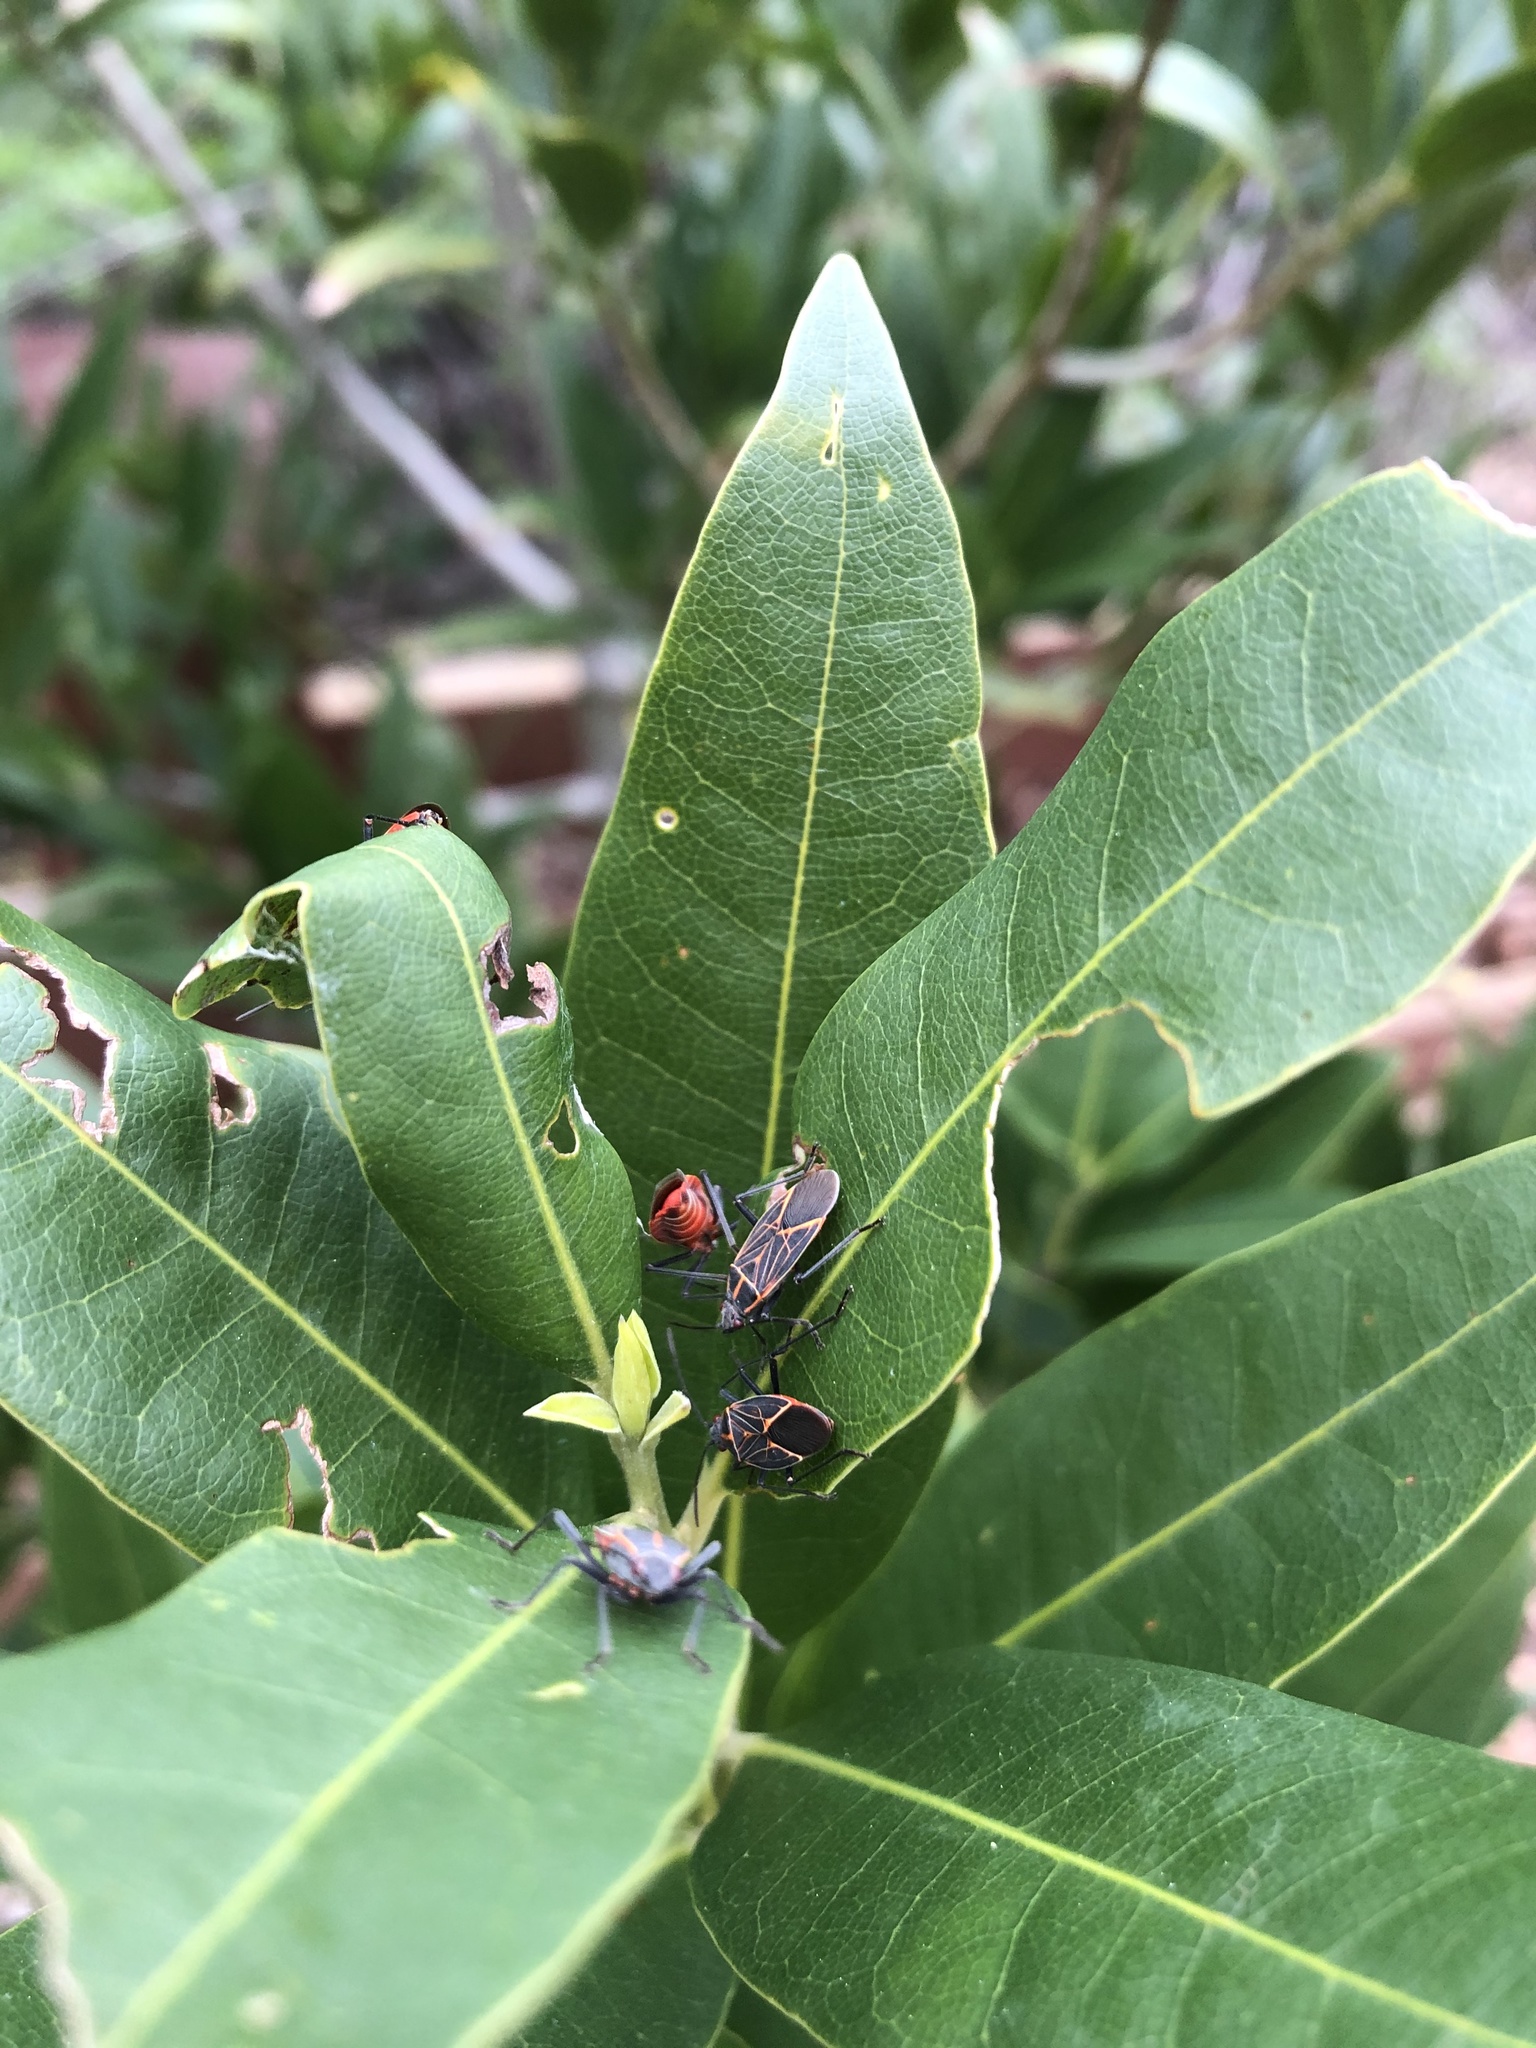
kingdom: Animalia
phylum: Arthropoda
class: Insecta
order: Hemiptera
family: Rhopalidae
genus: Boisea
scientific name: Boisea rubrolineata
